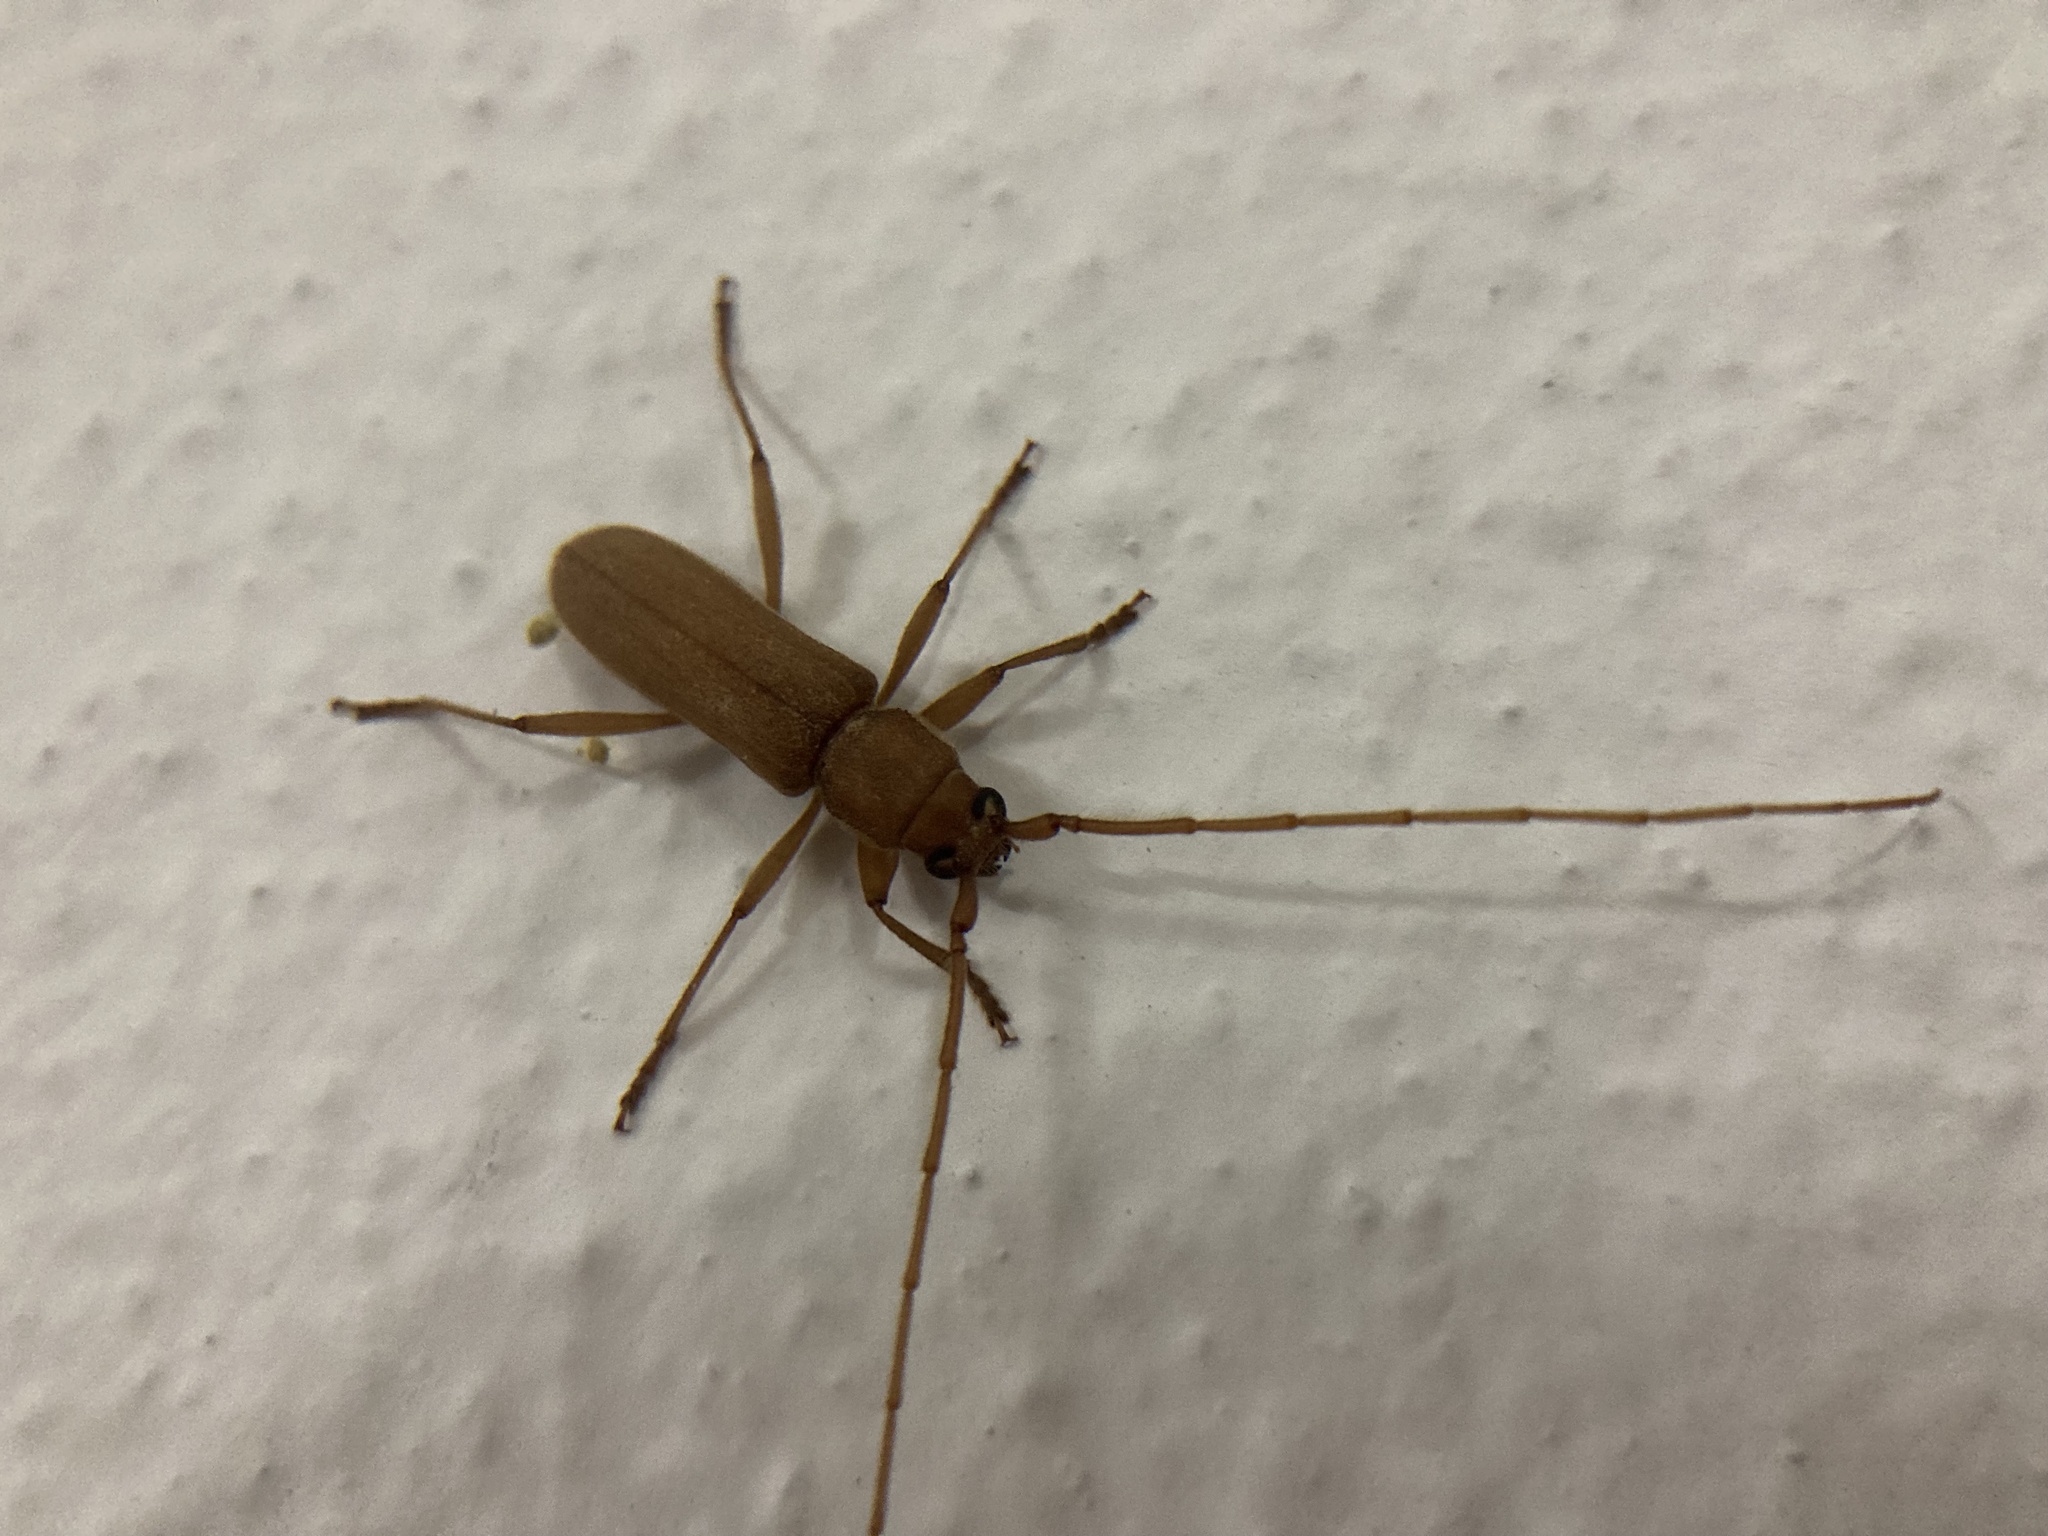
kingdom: Animalia
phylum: Arthropoda
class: Insecta
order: Coleoptera
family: Cerambycidae
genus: Stromatium
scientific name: Stromatium auratum
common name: Long-horned beetle
